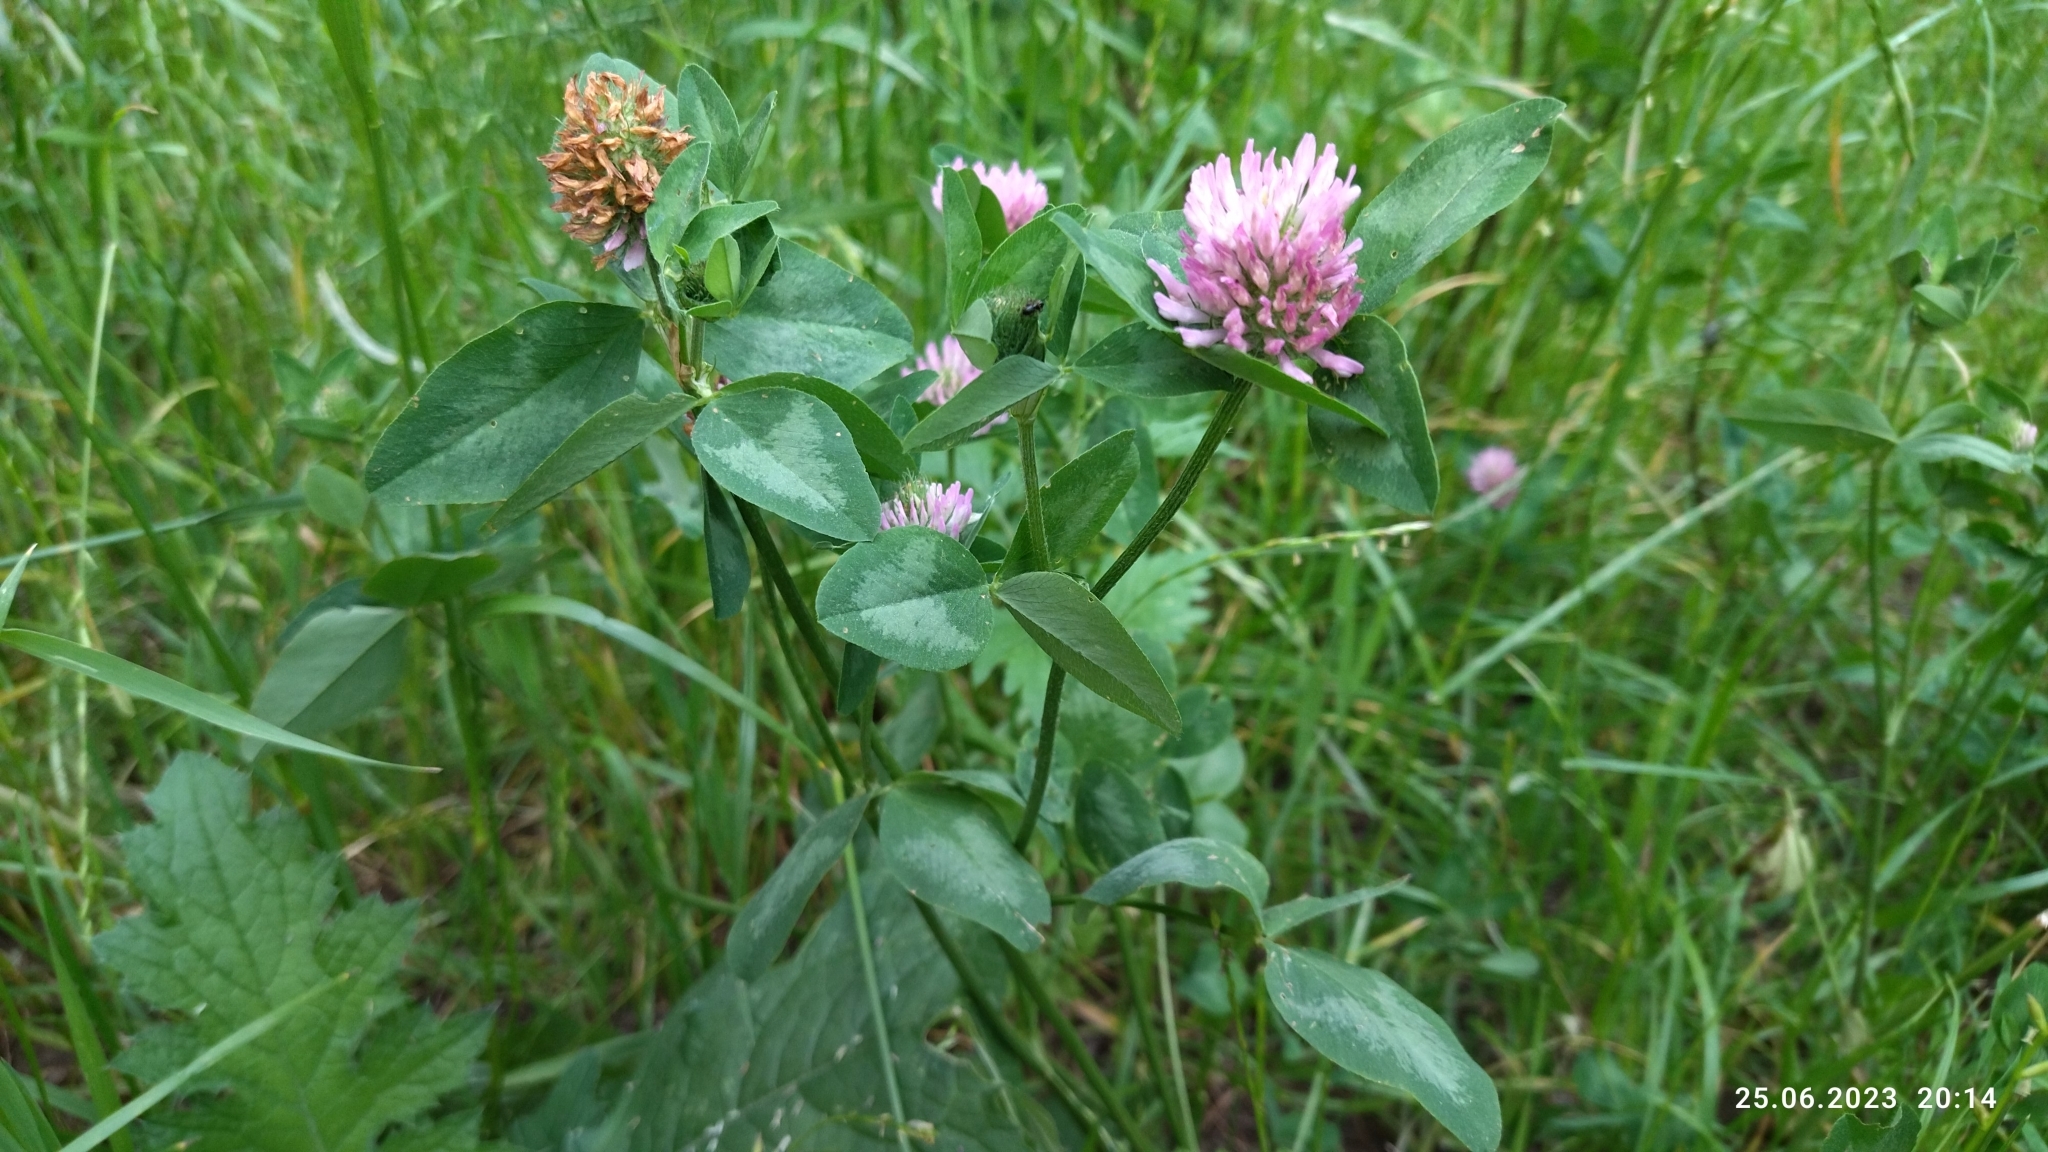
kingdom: Plantae
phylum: Tracheophyta
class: Magnoliopsida
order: Fabales
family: Fabaceae
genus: Trifolium
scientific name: Trifolium pratense
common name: Red clover
